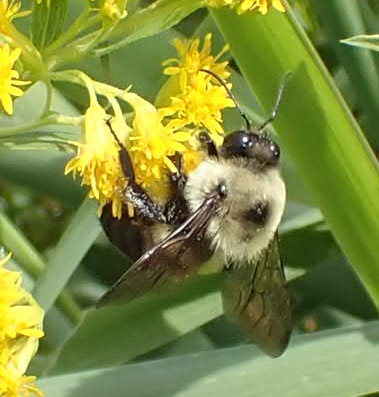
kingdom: Animalia
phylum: Arthropoda
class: Insecta
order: Hymenoptera
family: Apidae
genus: Bombus
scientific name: Bombus griseocollis
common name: Brown-belted bumble bee
